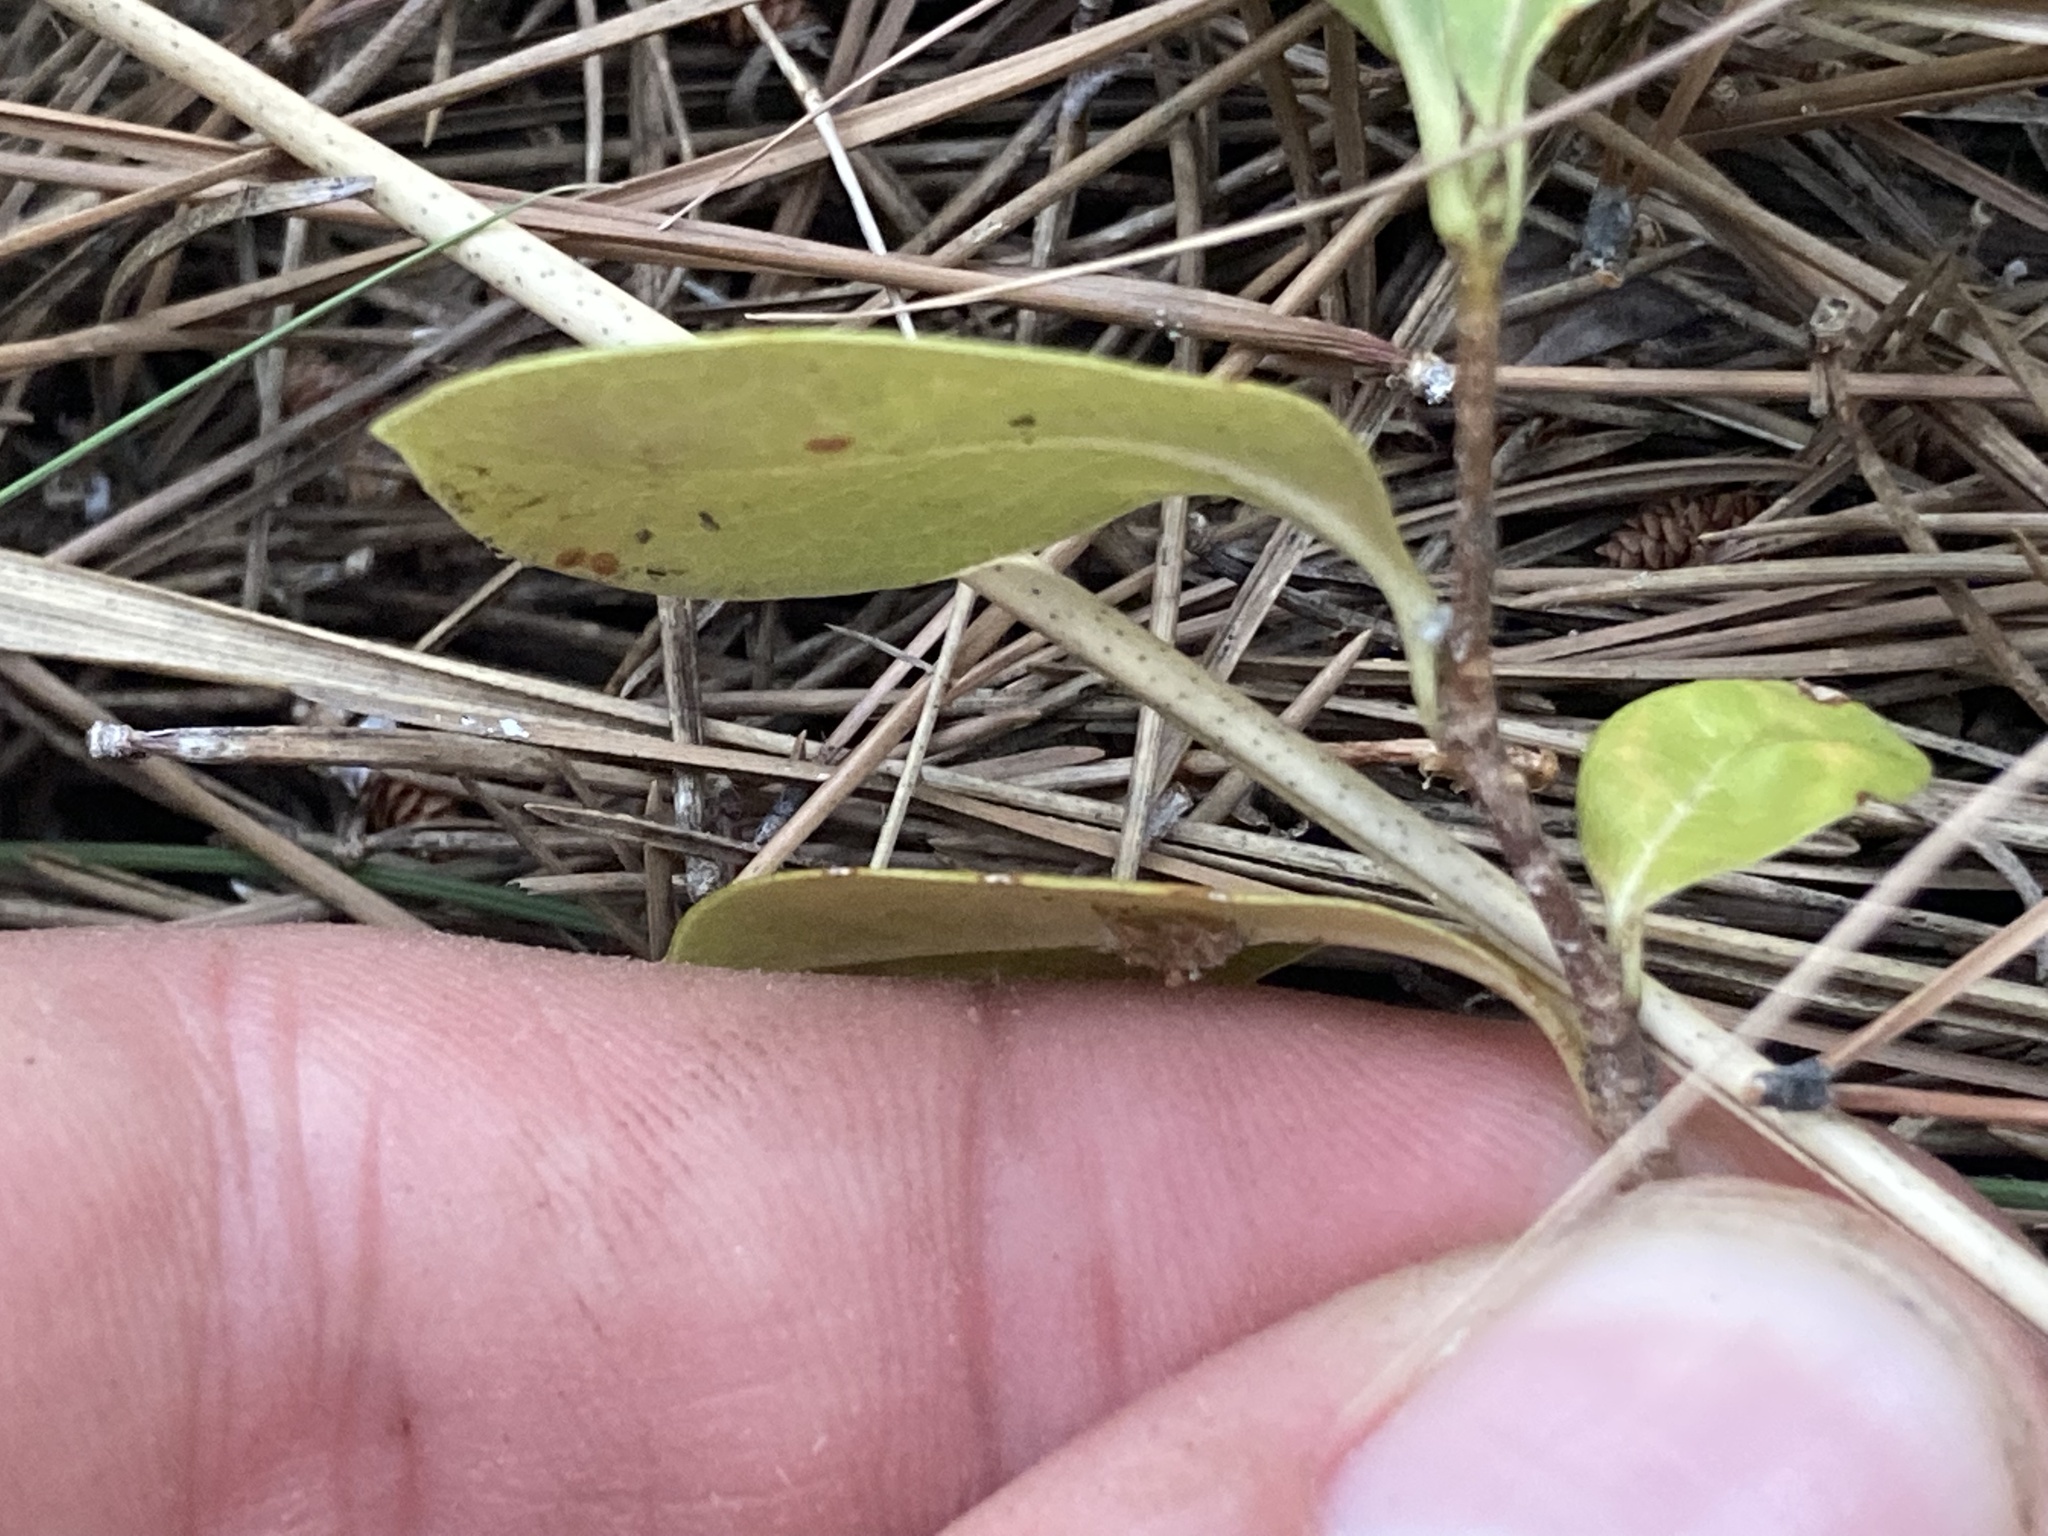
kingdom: Plantae
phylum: Tracheophyta
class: Magnoliopsida
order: Apiales
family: Pittosporaceae
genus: Pittosporum
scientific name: Pittosporum tobira
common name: Japanese cheesewood
